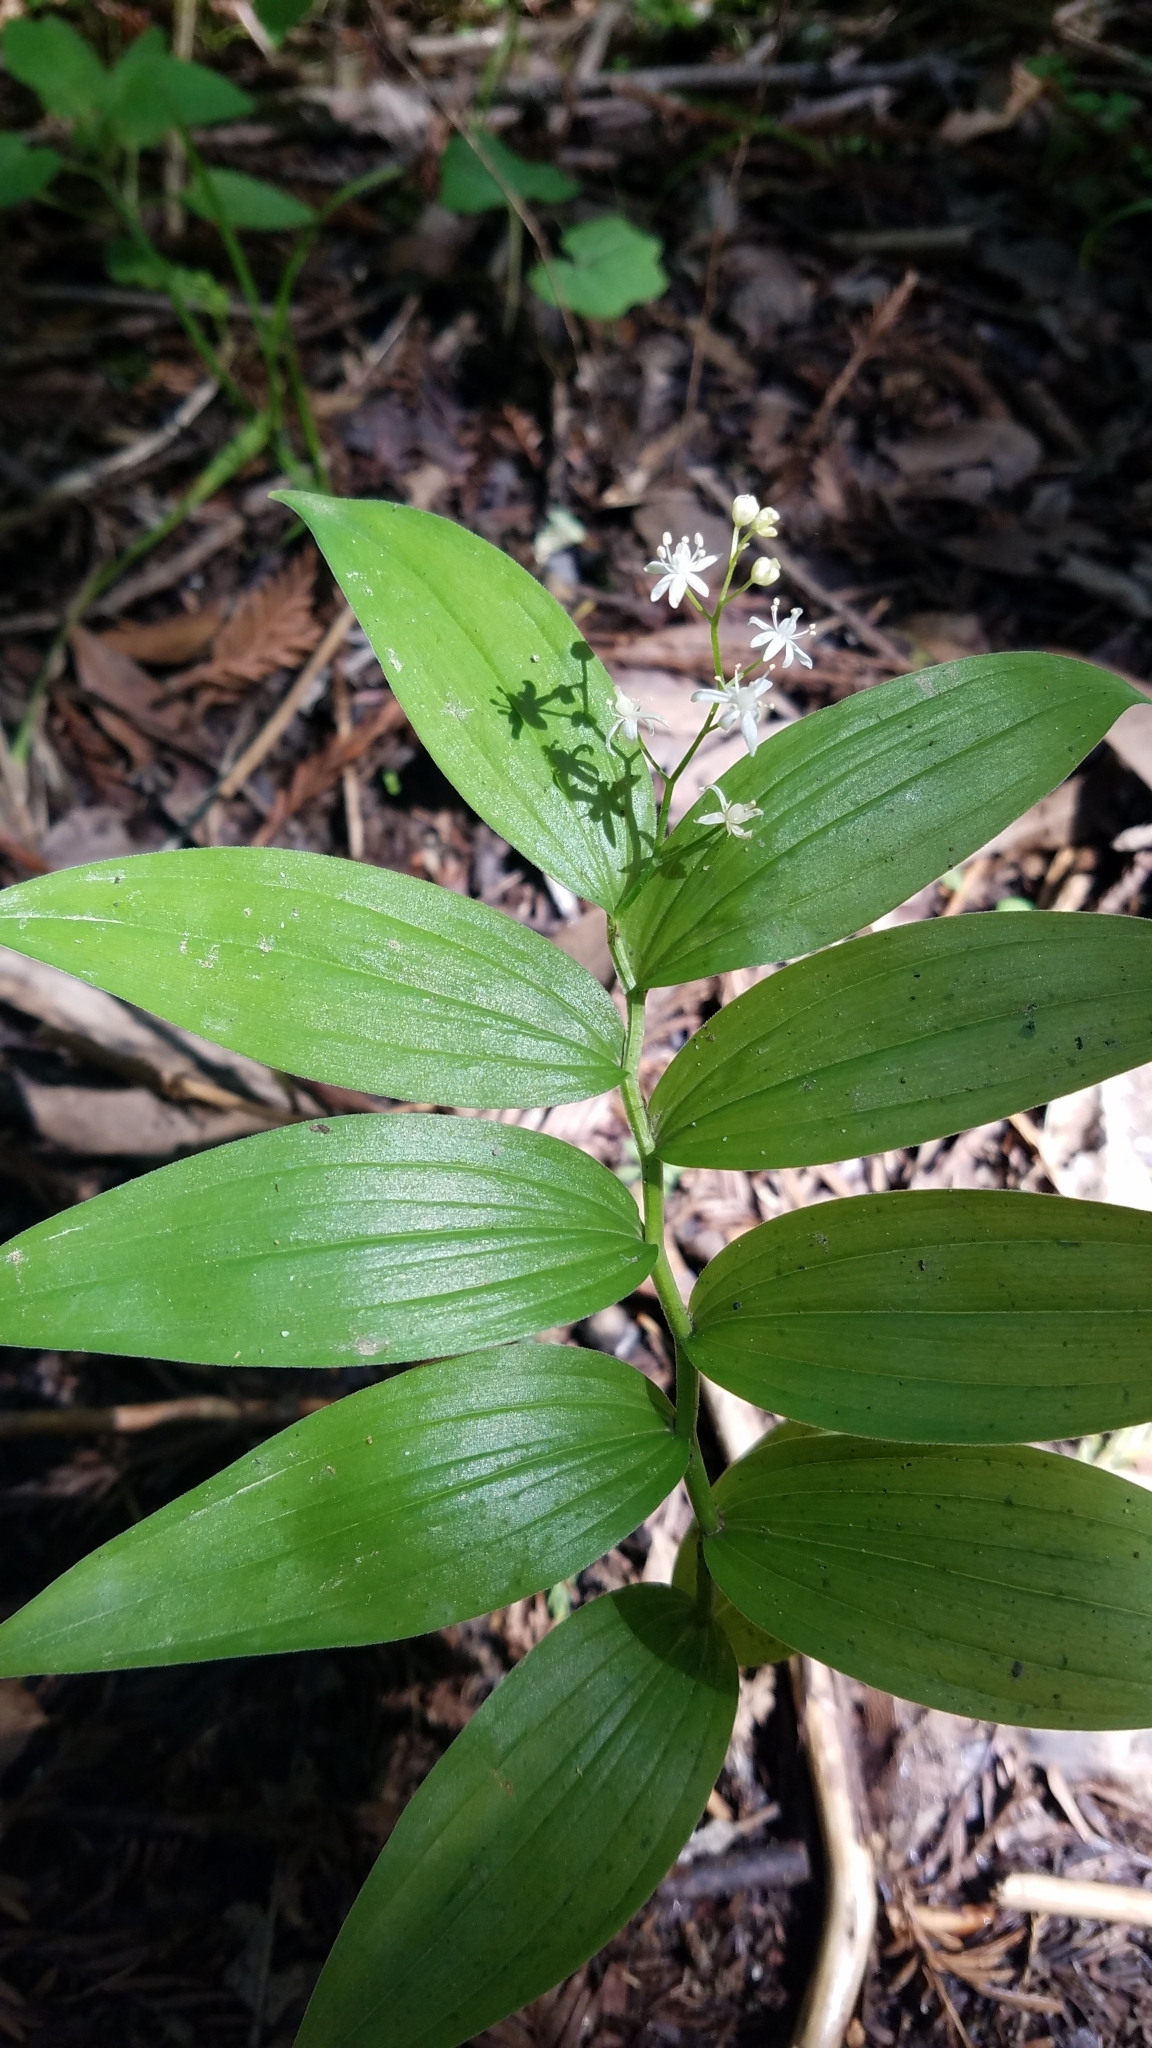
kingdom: Plantae
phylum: Tracheophyta
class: Liliopsida
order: Asparagales
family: Asparagaceae
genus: Maianthemum
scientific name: Maianthemum stellatum
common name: Little false solomon's seal
